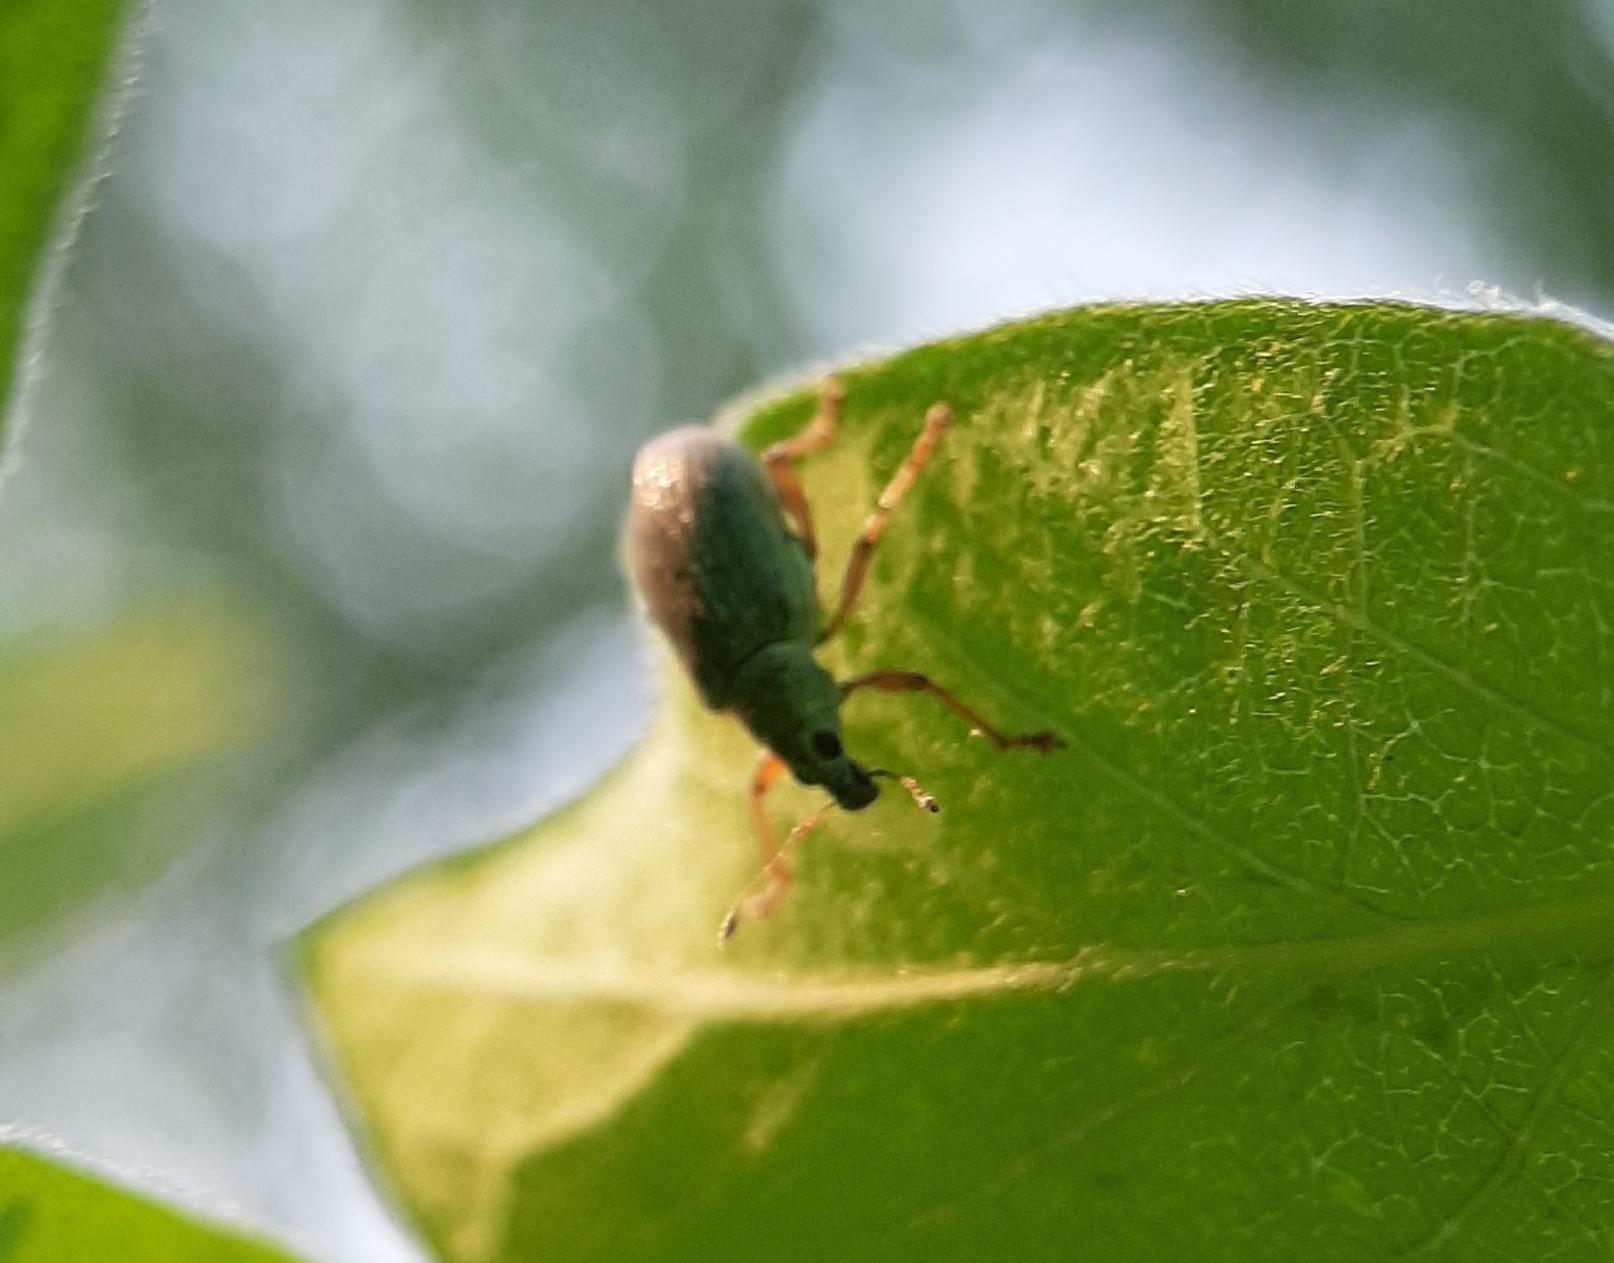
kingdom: Animalia
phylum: Arthropoda
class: Insecta
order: Coleoptera
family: Curculionidae
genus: Polydrusus
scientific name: Polydrusus formosus
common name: Weevil
